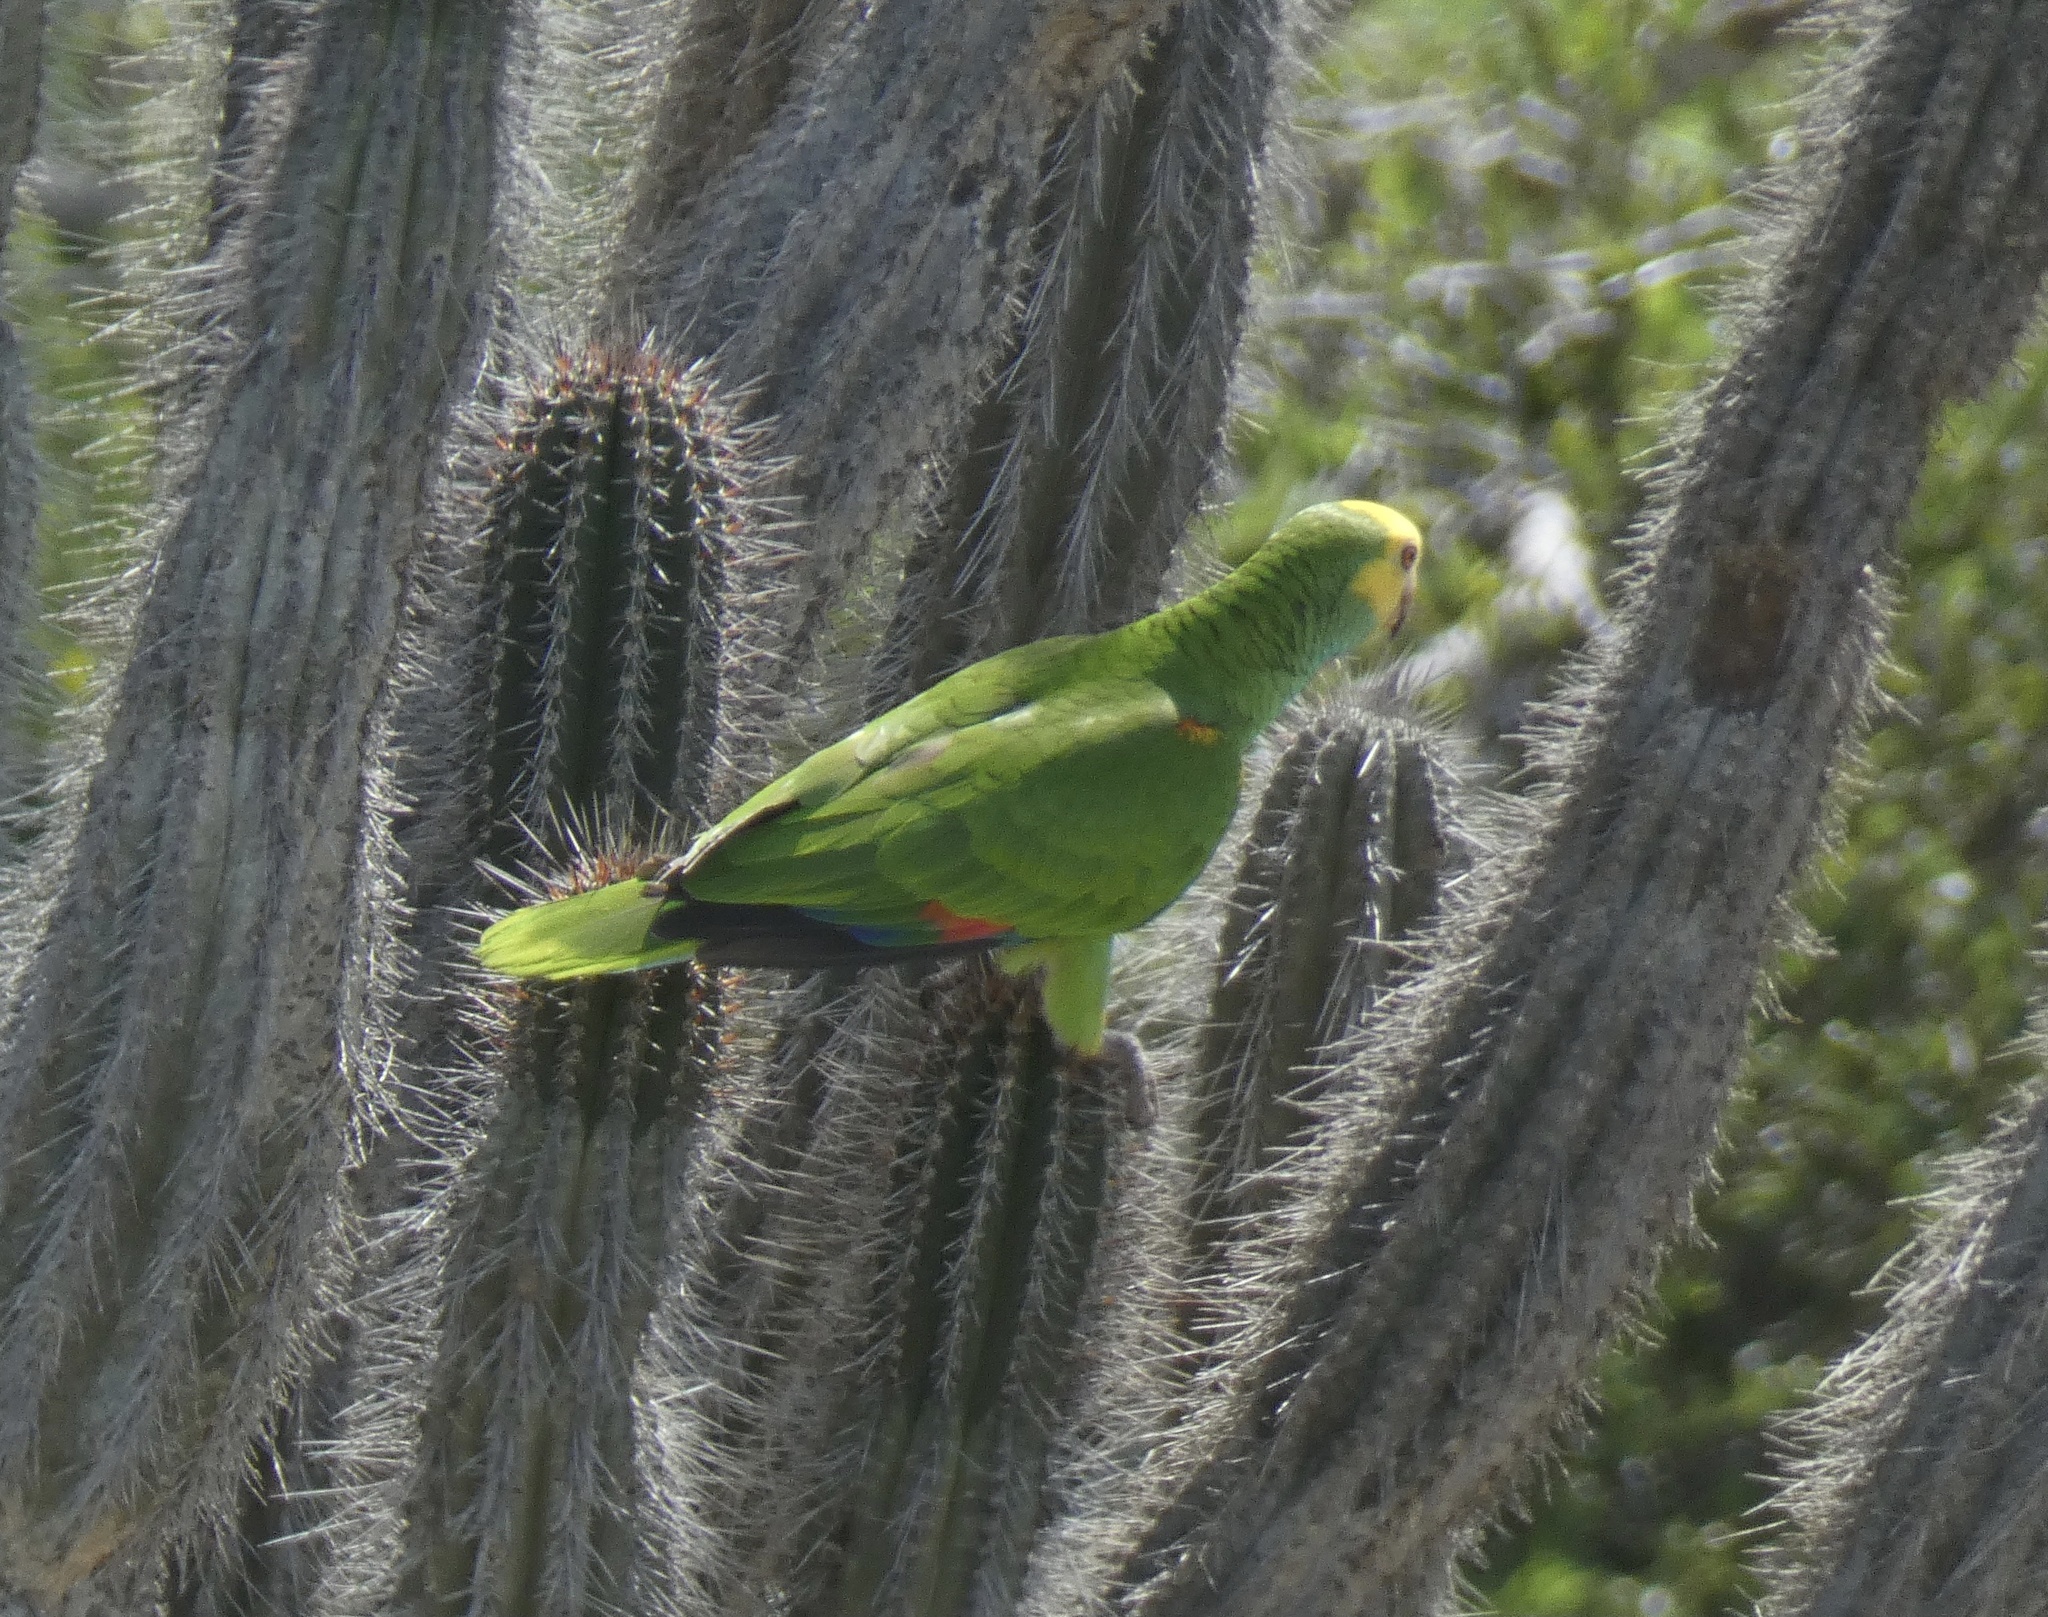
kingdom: Animalia
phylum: Chordata
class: Aves
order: Psittaciformes
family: Psittacidae
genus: Amazona
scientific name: Amazona barbadensis
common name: Yellow-shouldered amazon
